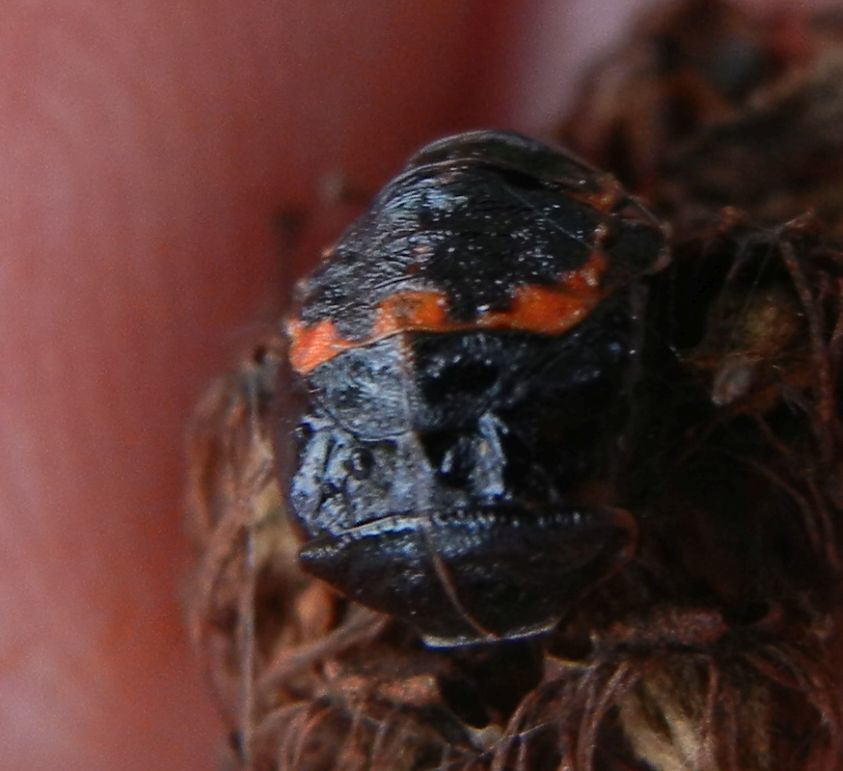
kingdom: Animalia
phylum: Arthropoda
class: Insecta
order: Coleoptera
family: Coccinellidae
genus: Harmonia
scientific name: Harmonia axyridis
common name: Harlequin ladybird
